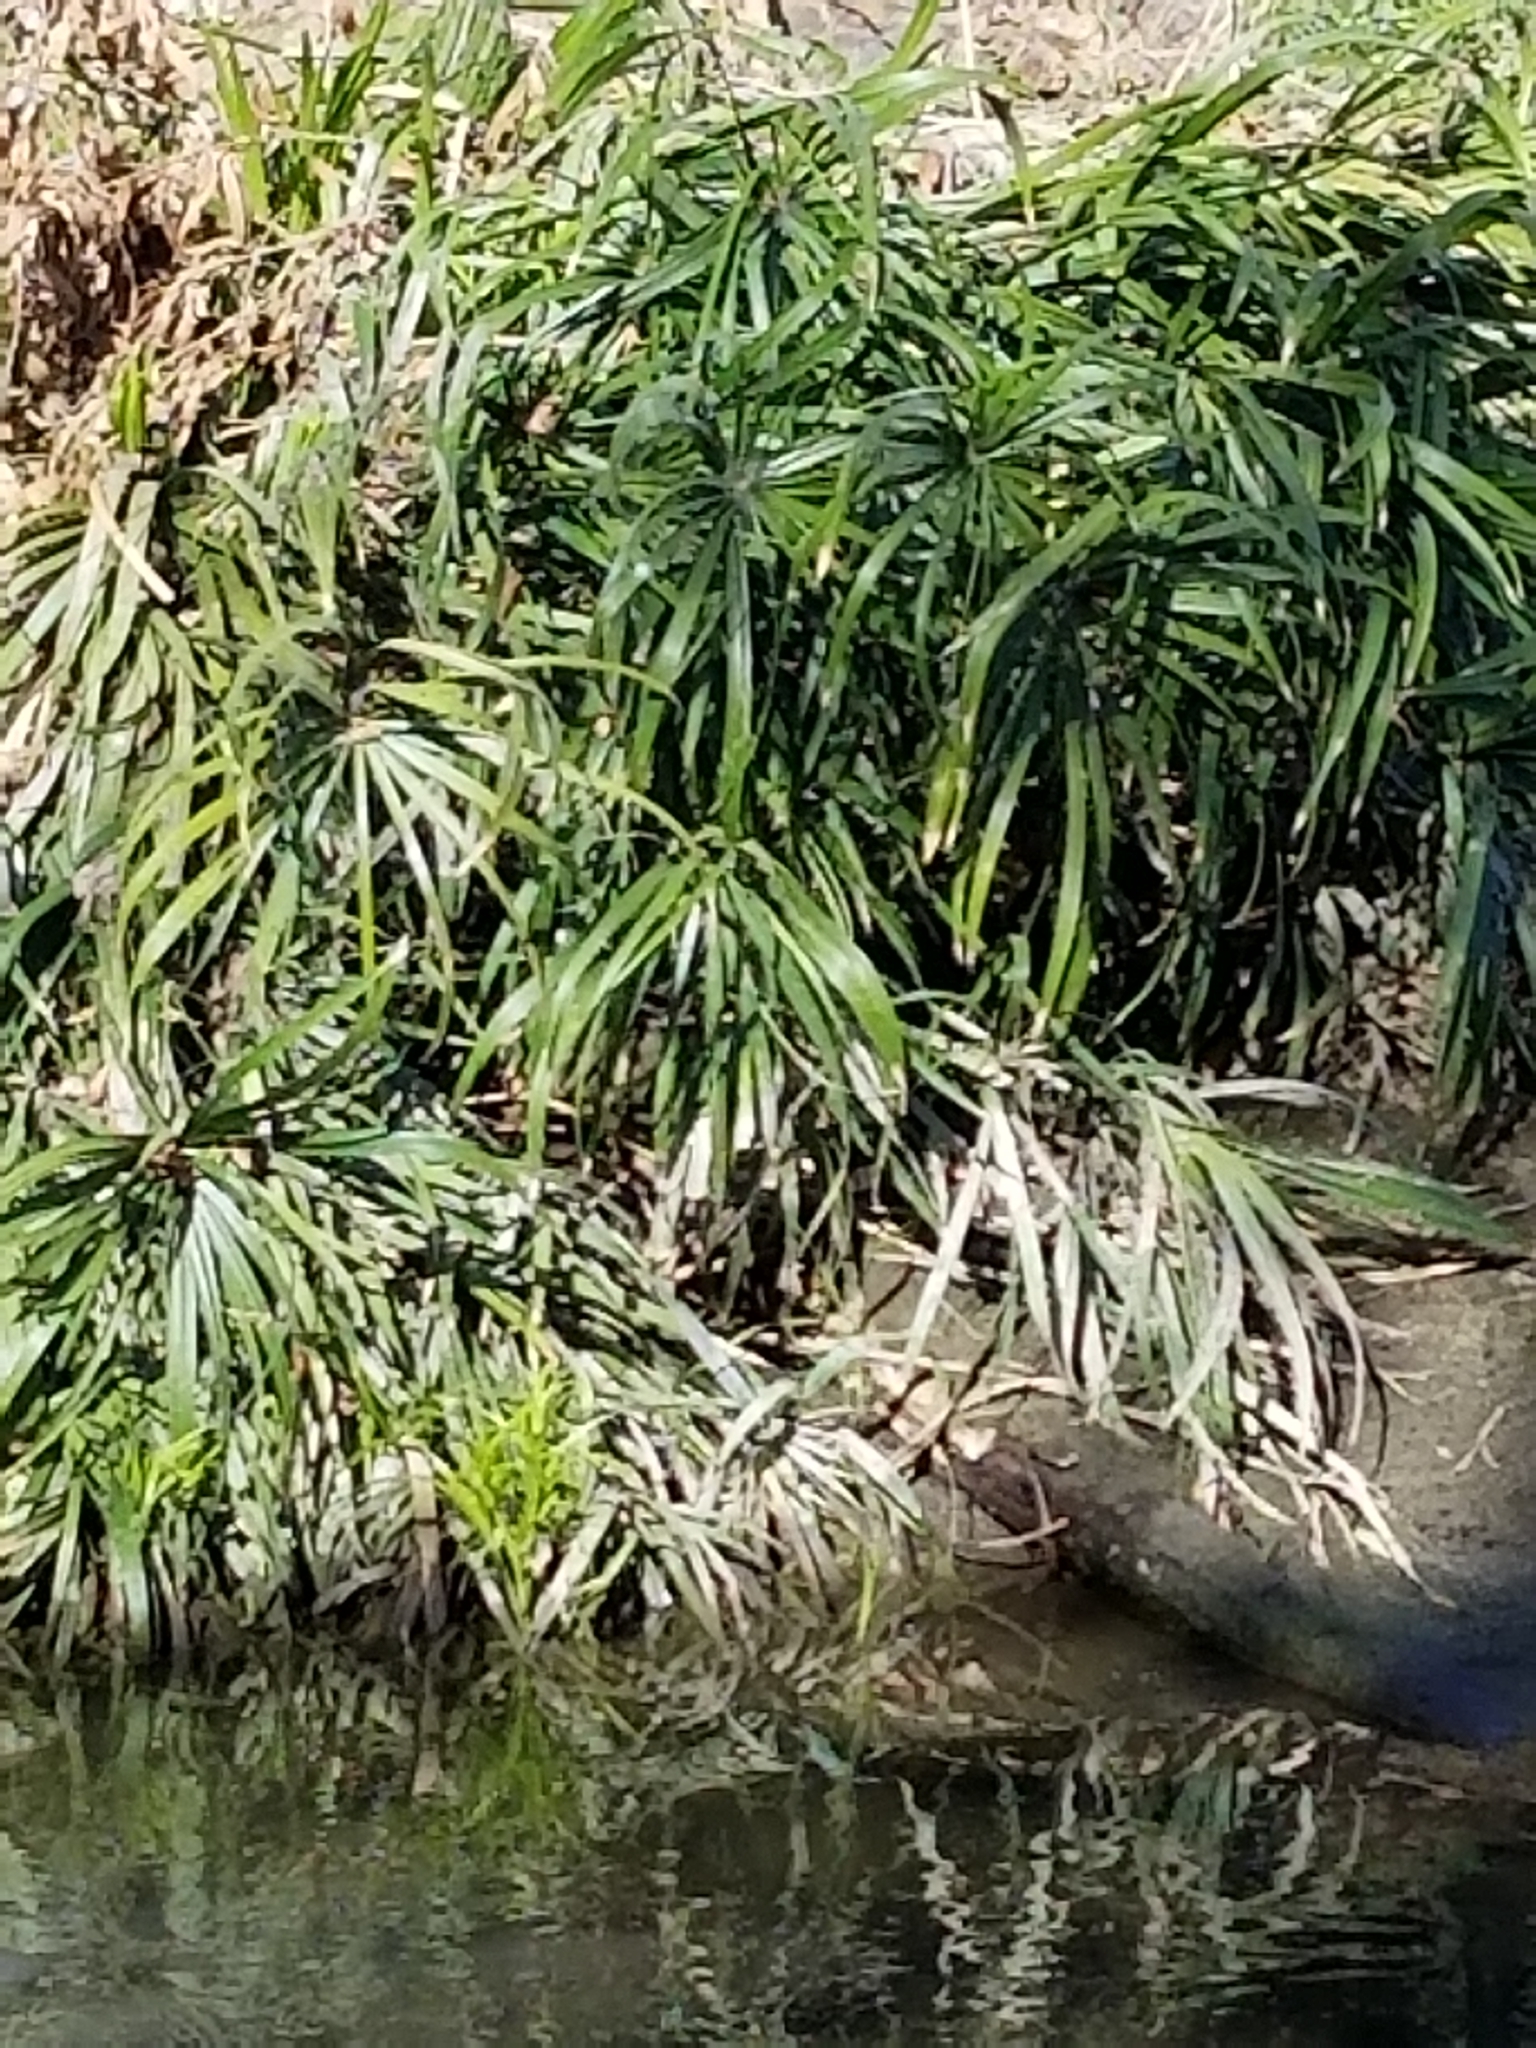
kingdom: Plantae
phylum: Tracheophyta
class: Liliopsida
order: Poales
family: Cyperaceae
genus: Cyperus
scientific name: Cyperus alternifolius
